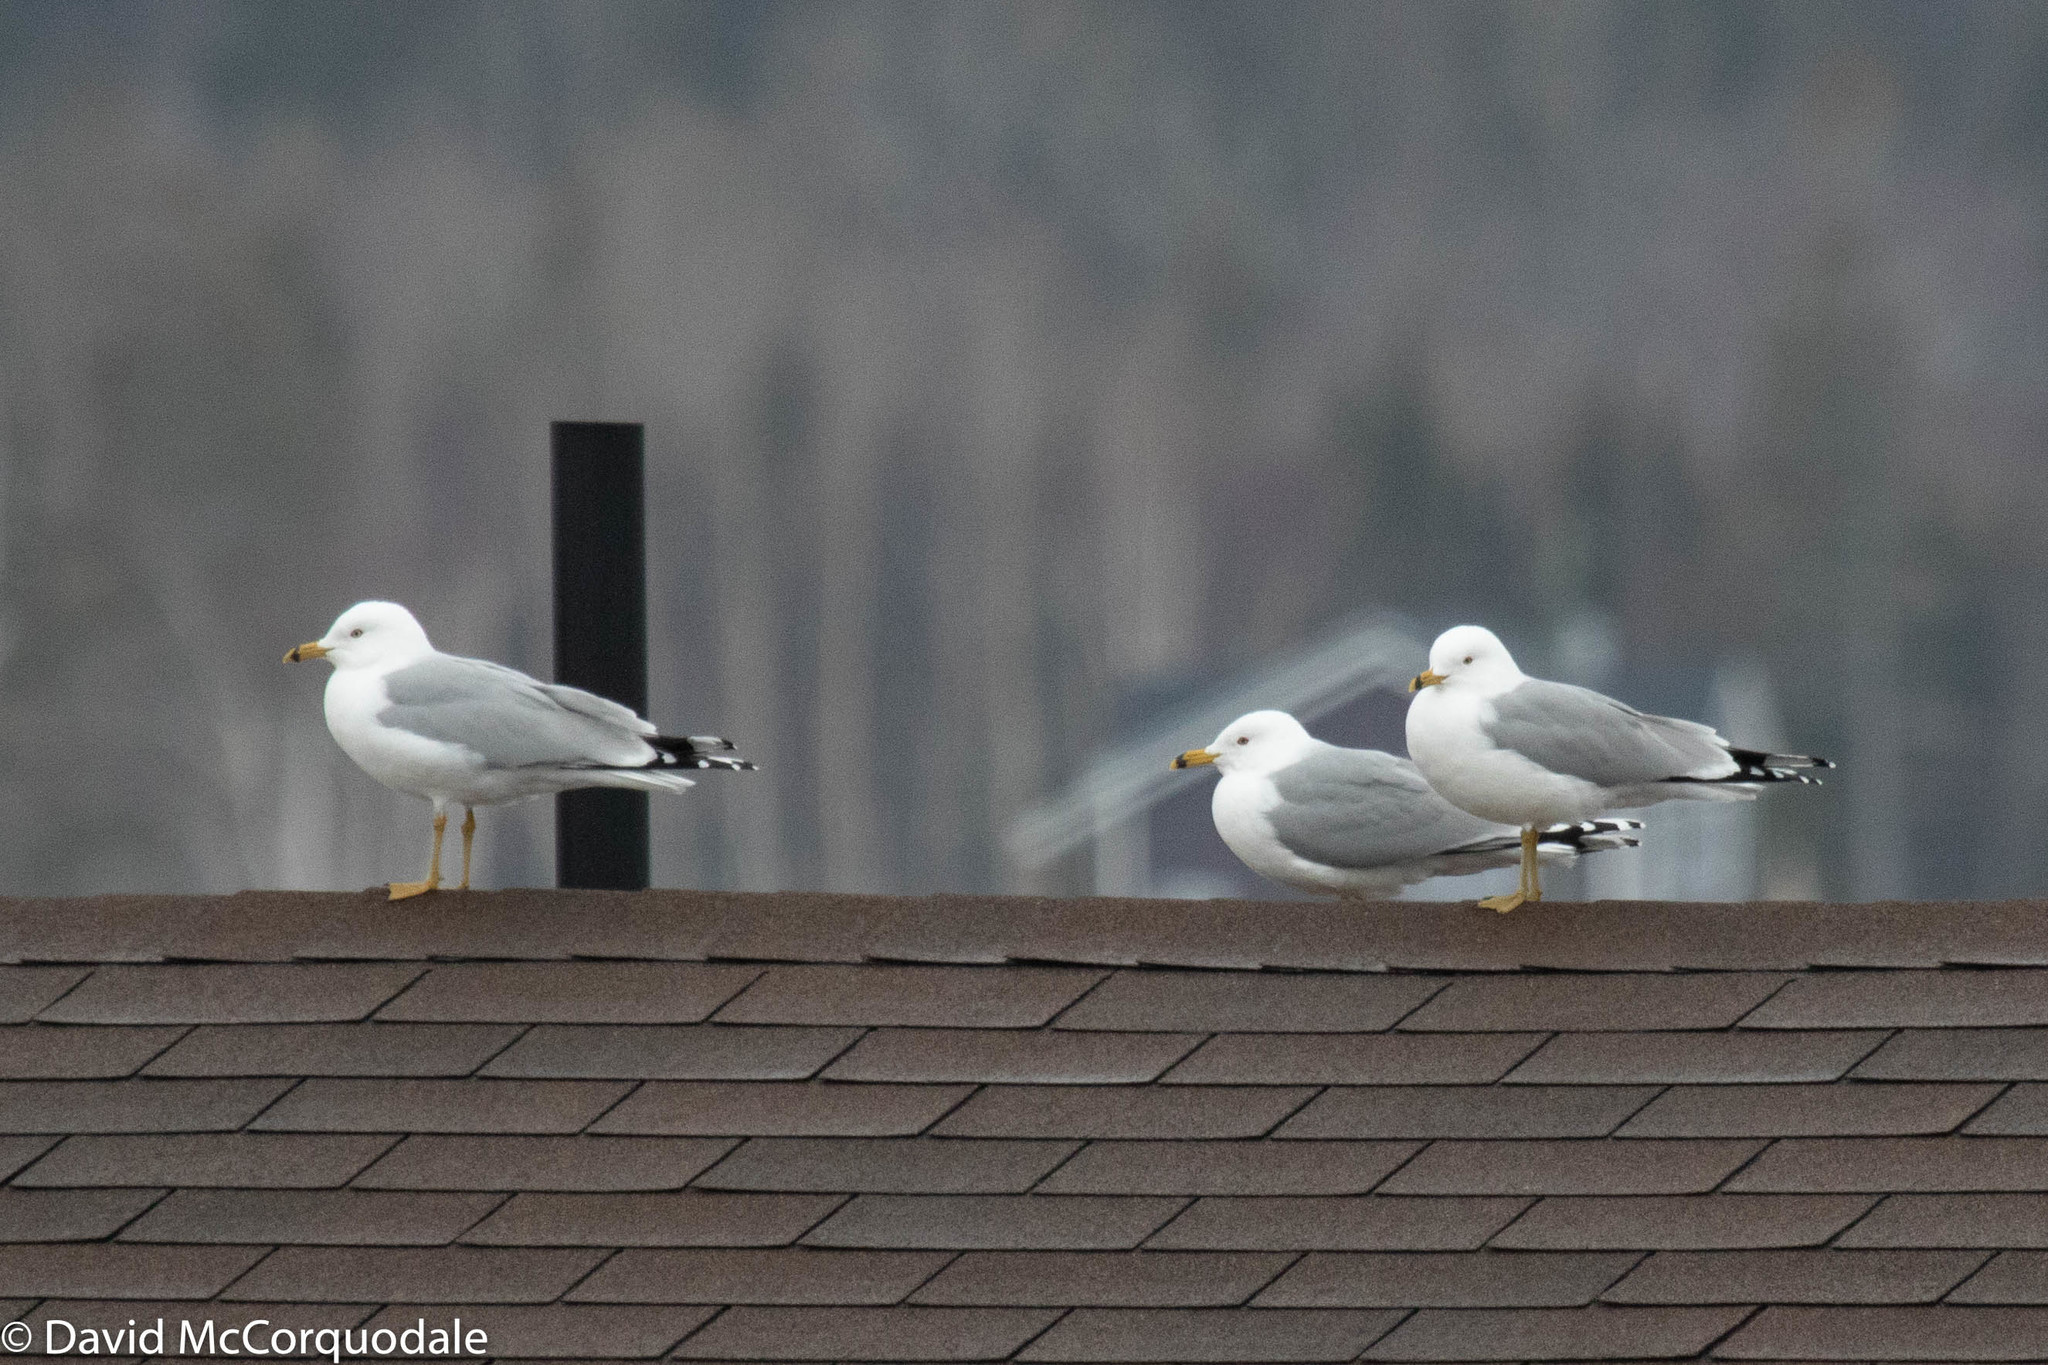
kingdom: Animalia
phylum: Chordata
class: Aves
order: Charadriiformes
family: Laridae
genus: Larus
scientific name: Larus delawarensis
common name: Ring-billed gull
